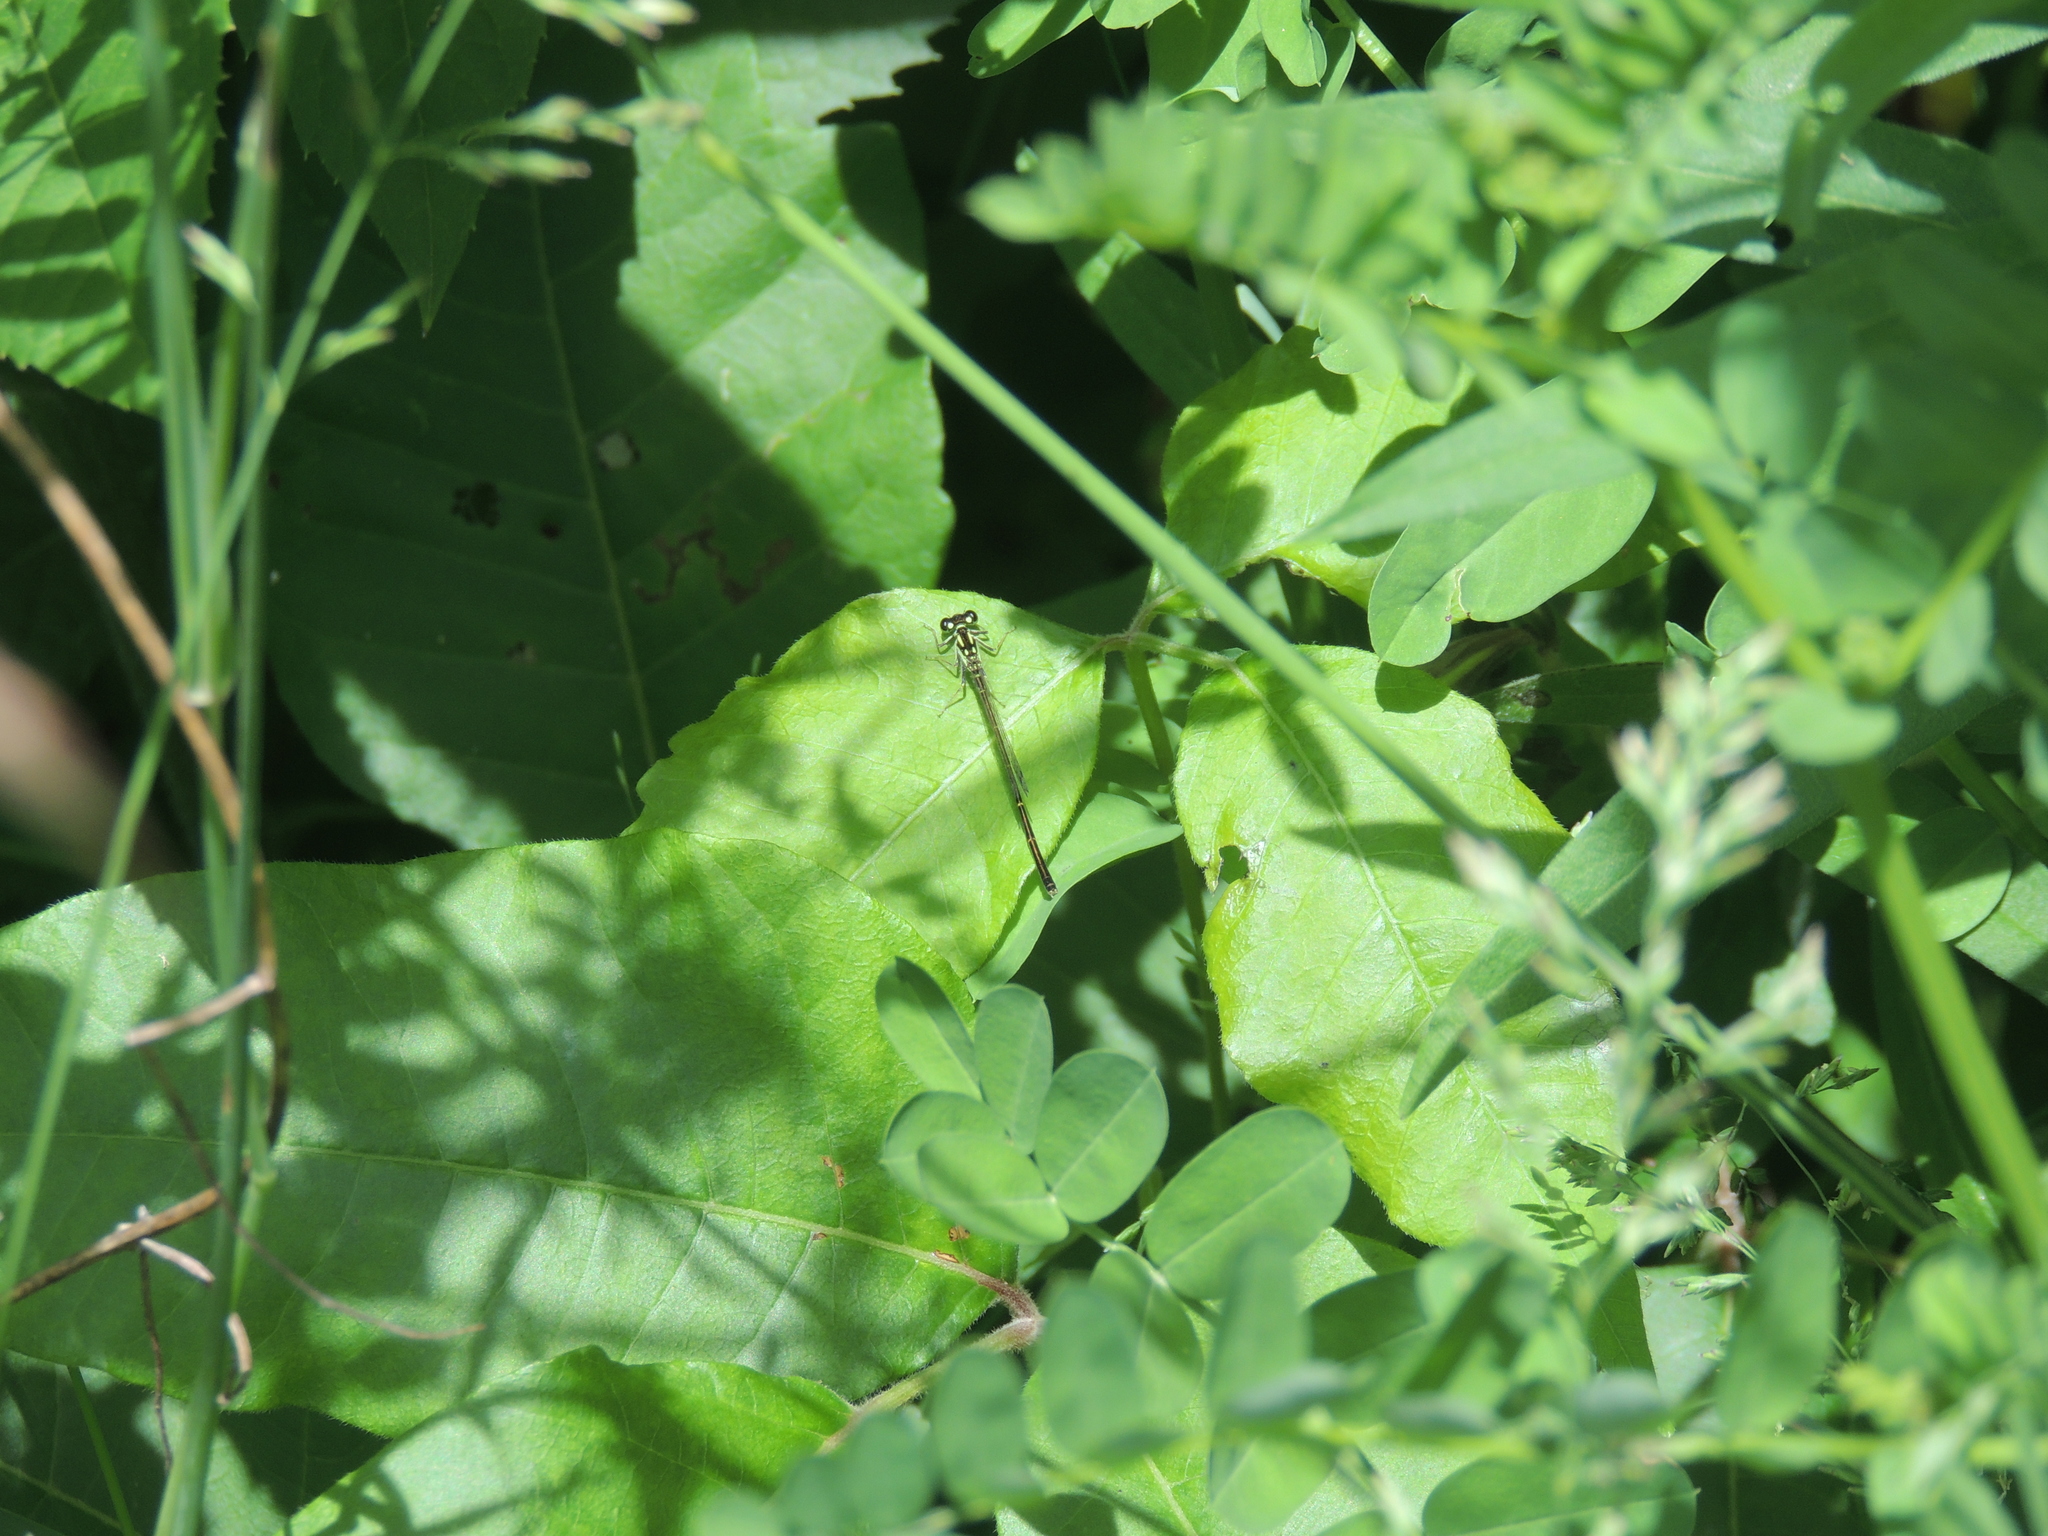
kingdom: Animalia
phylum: Arthropoda
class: Insecta
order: Odonata
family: Coenagrionidae
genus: Ischnura
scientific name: Ischnura posita
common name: Fragile forktail
